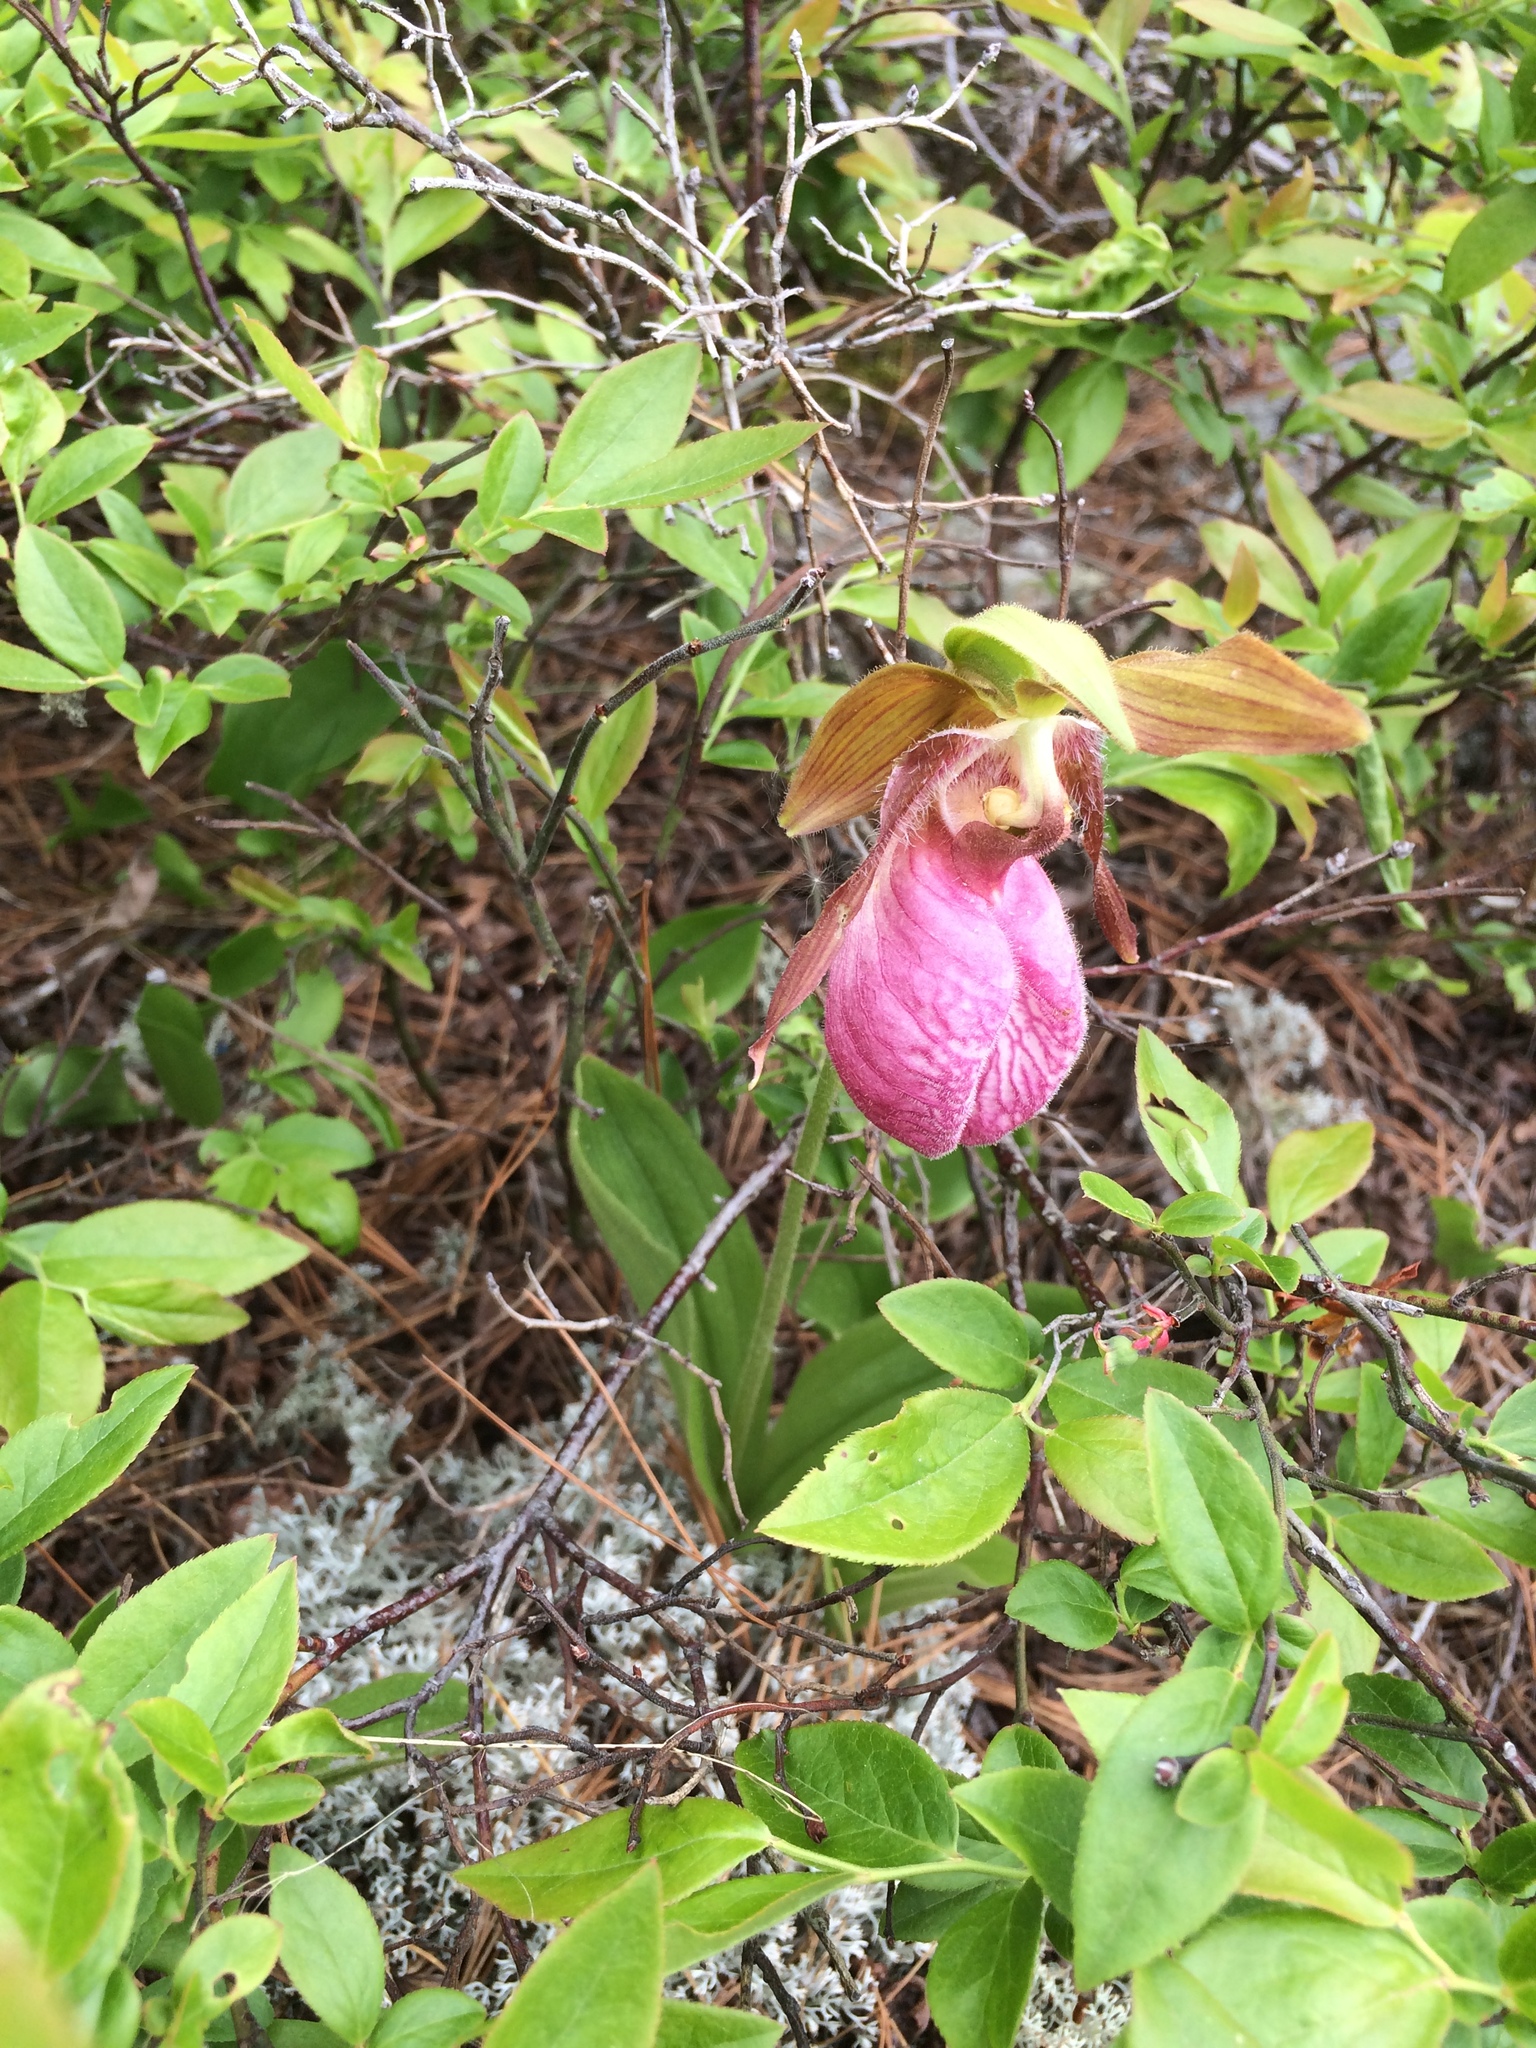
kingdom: Plantae
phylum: Tracheophyta
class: Liliopsida
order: Asparagales
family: Orchidaceae
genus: Cypripedium
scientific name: Cypripedium acaule
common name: Pink lady's-slipper
